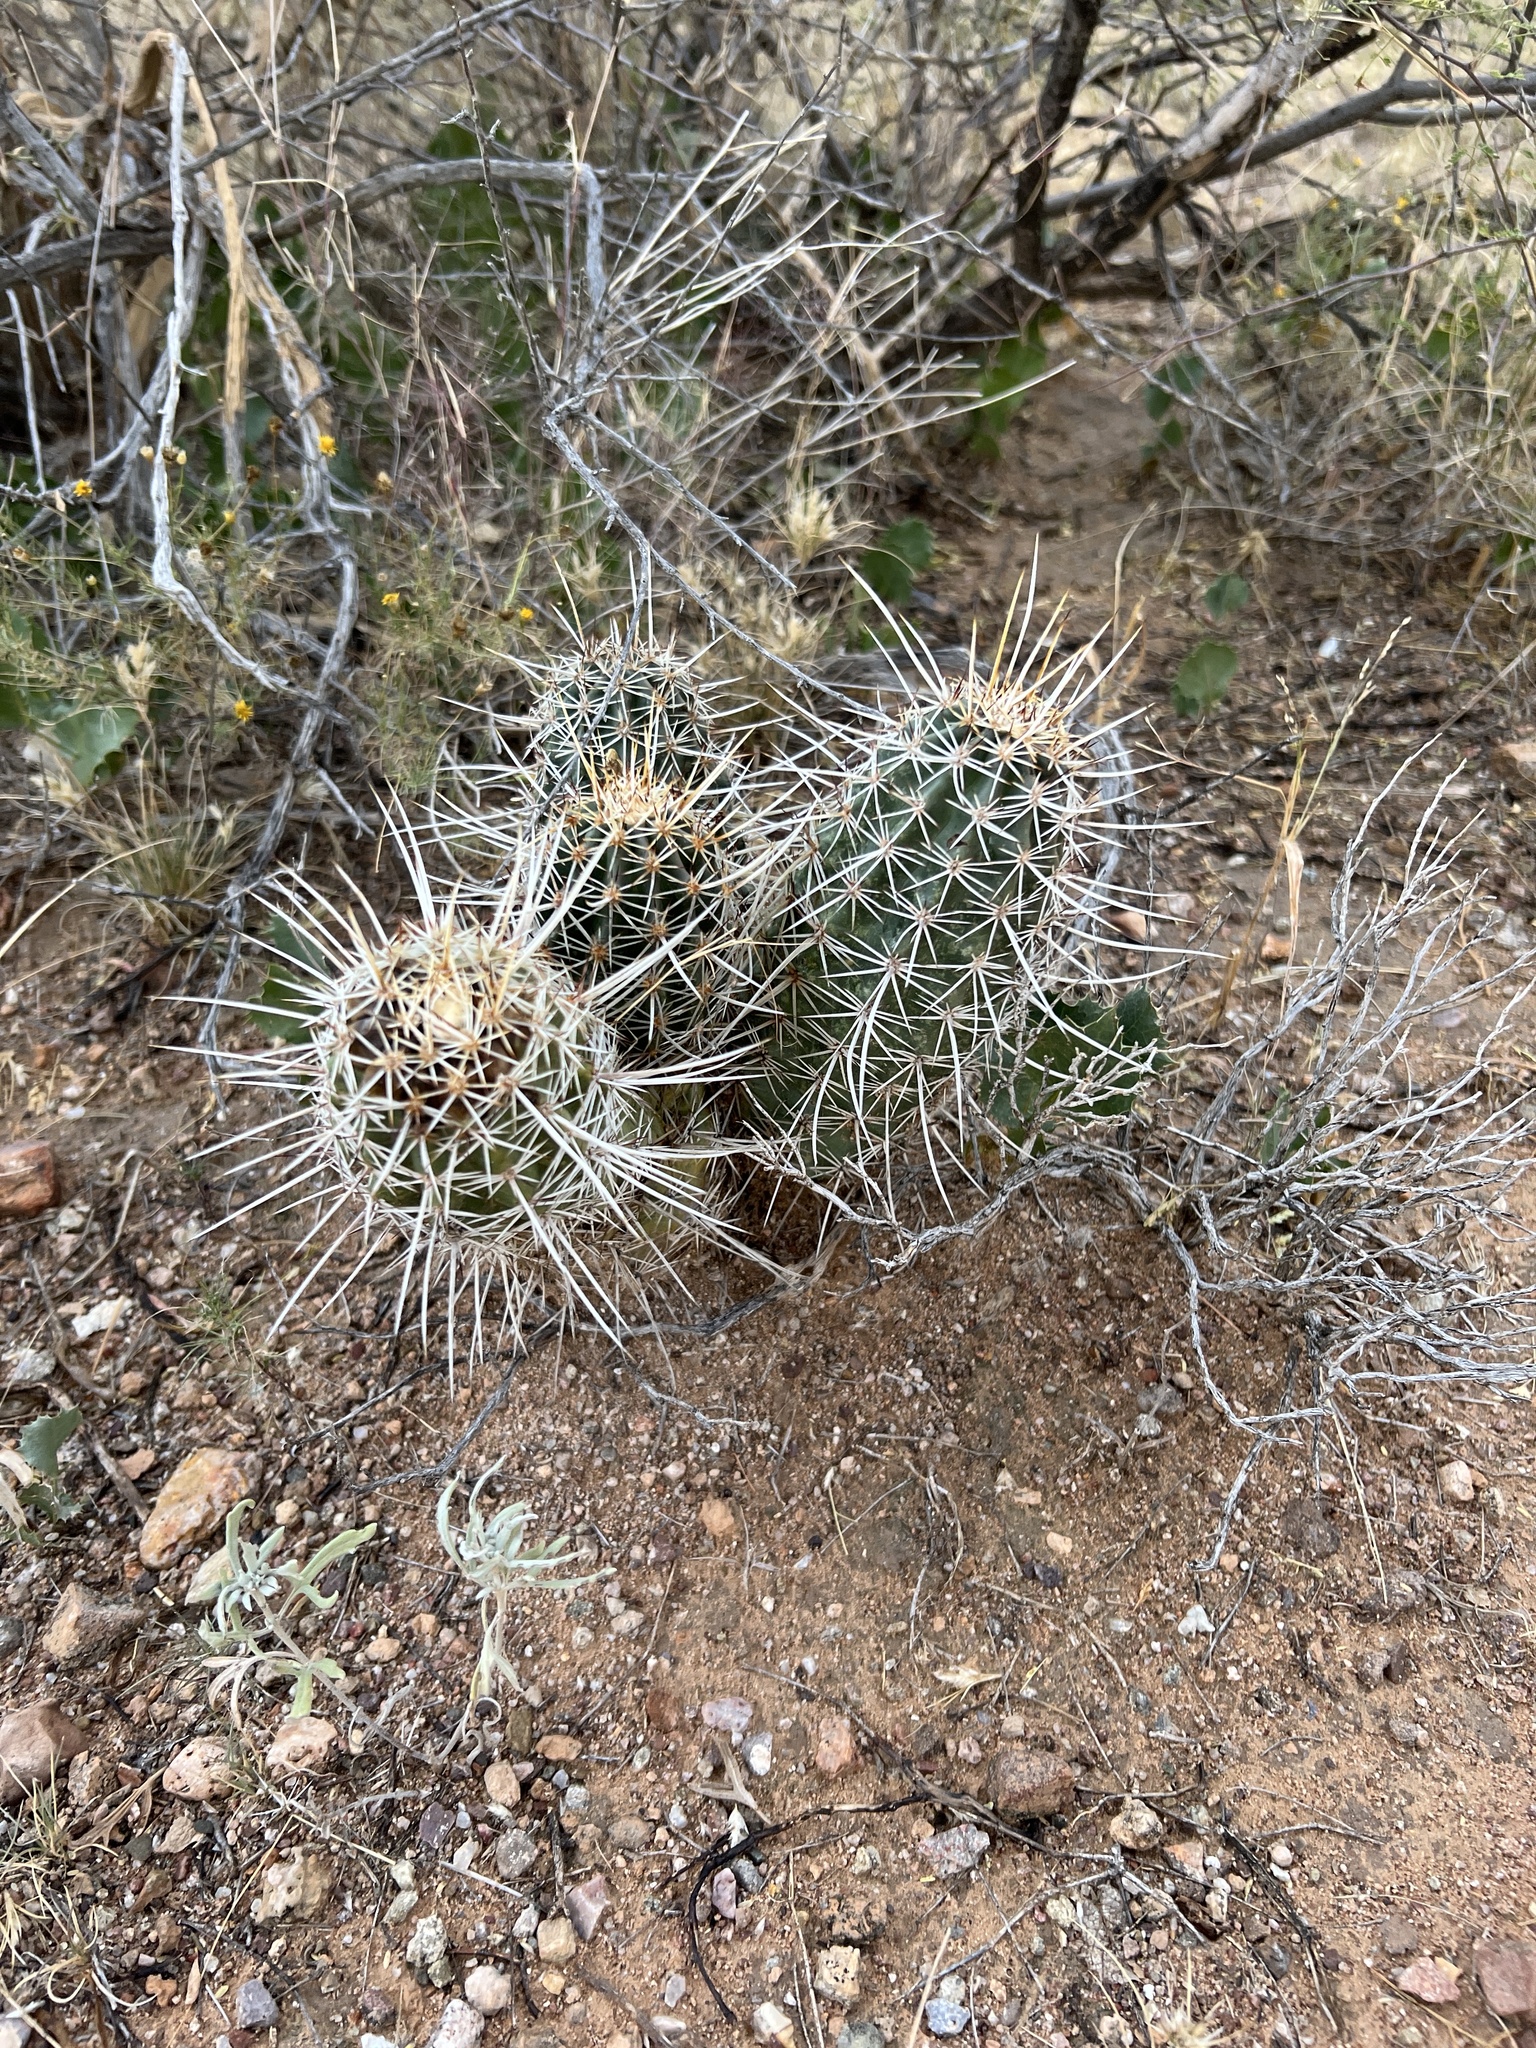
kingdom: Plantae
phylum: Tracheophyta
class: Magnoliopsida
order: Caryophyllales
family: Cactaceae
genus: Echinocereus
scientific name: Echinocereus fasciculatus
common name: Bundle hedgehog
